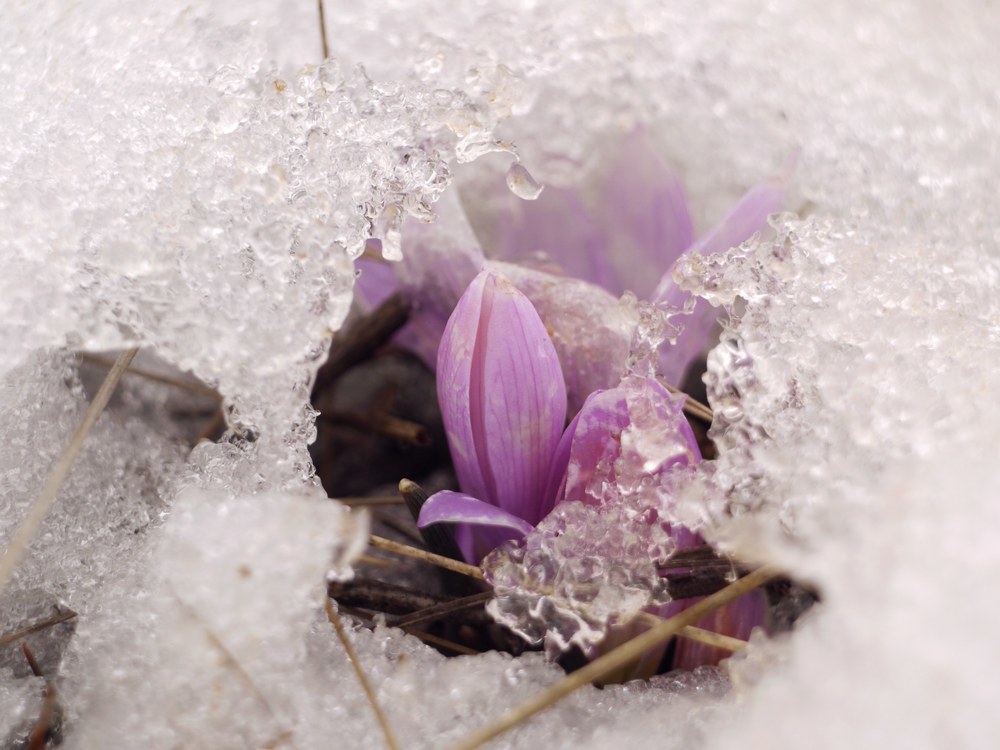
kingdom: Plantae
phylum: Tracheophyta
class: Liliopsida
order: Liliales
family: Colchicaceae
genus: Colchicum
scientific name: Colchicum bulbocodium
